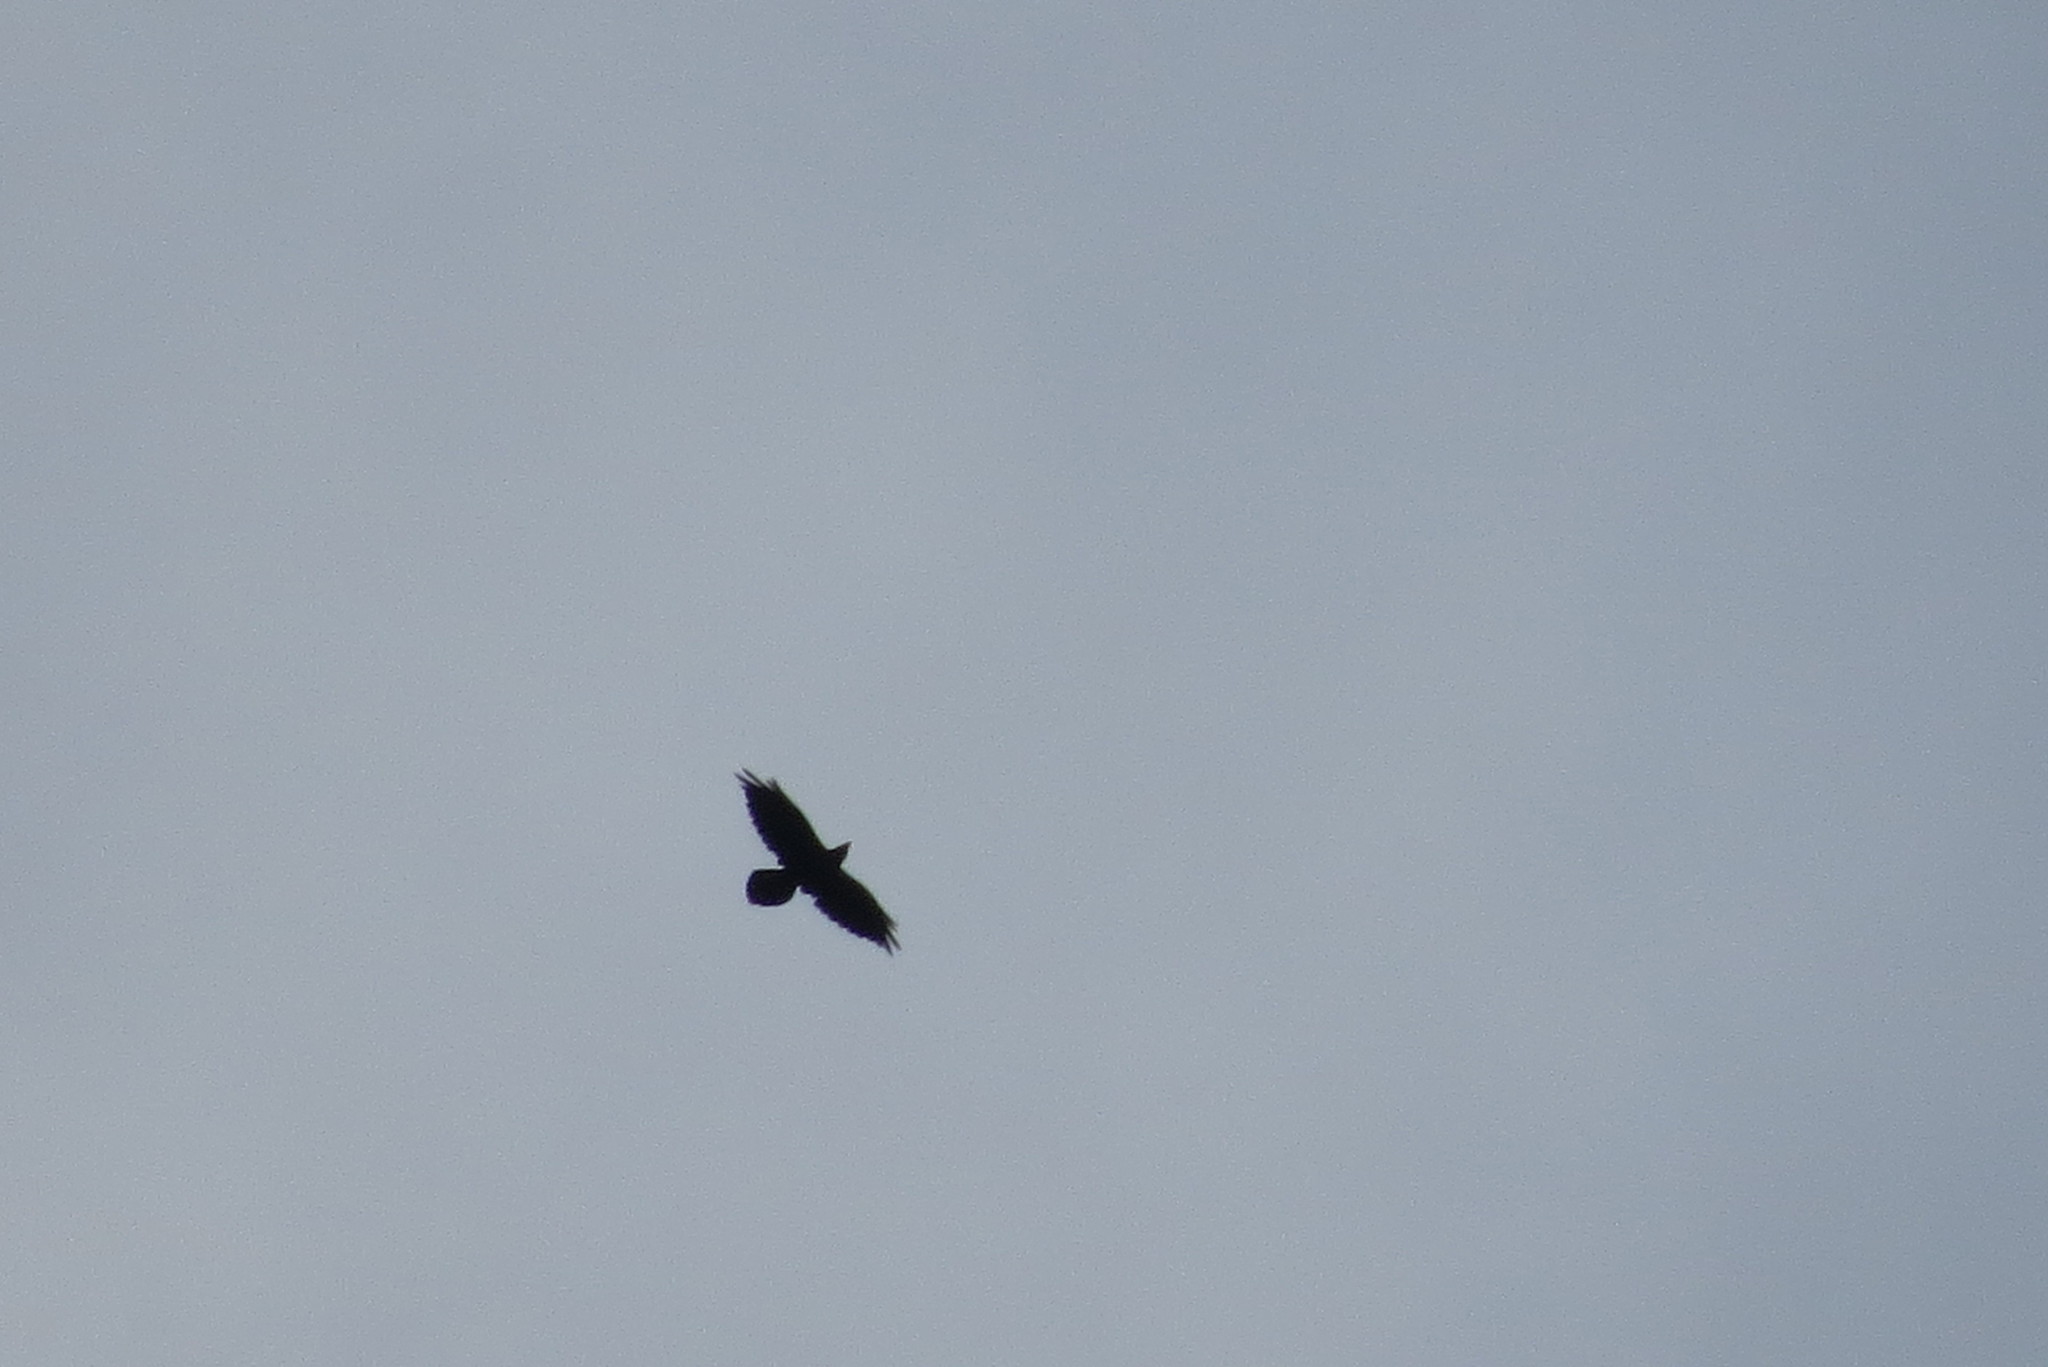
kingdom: Animalia
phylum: Chordata
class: Aves
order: Passeriformes
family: Corvidae
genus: Corvus
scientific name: Corvus corax
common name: Common raven
